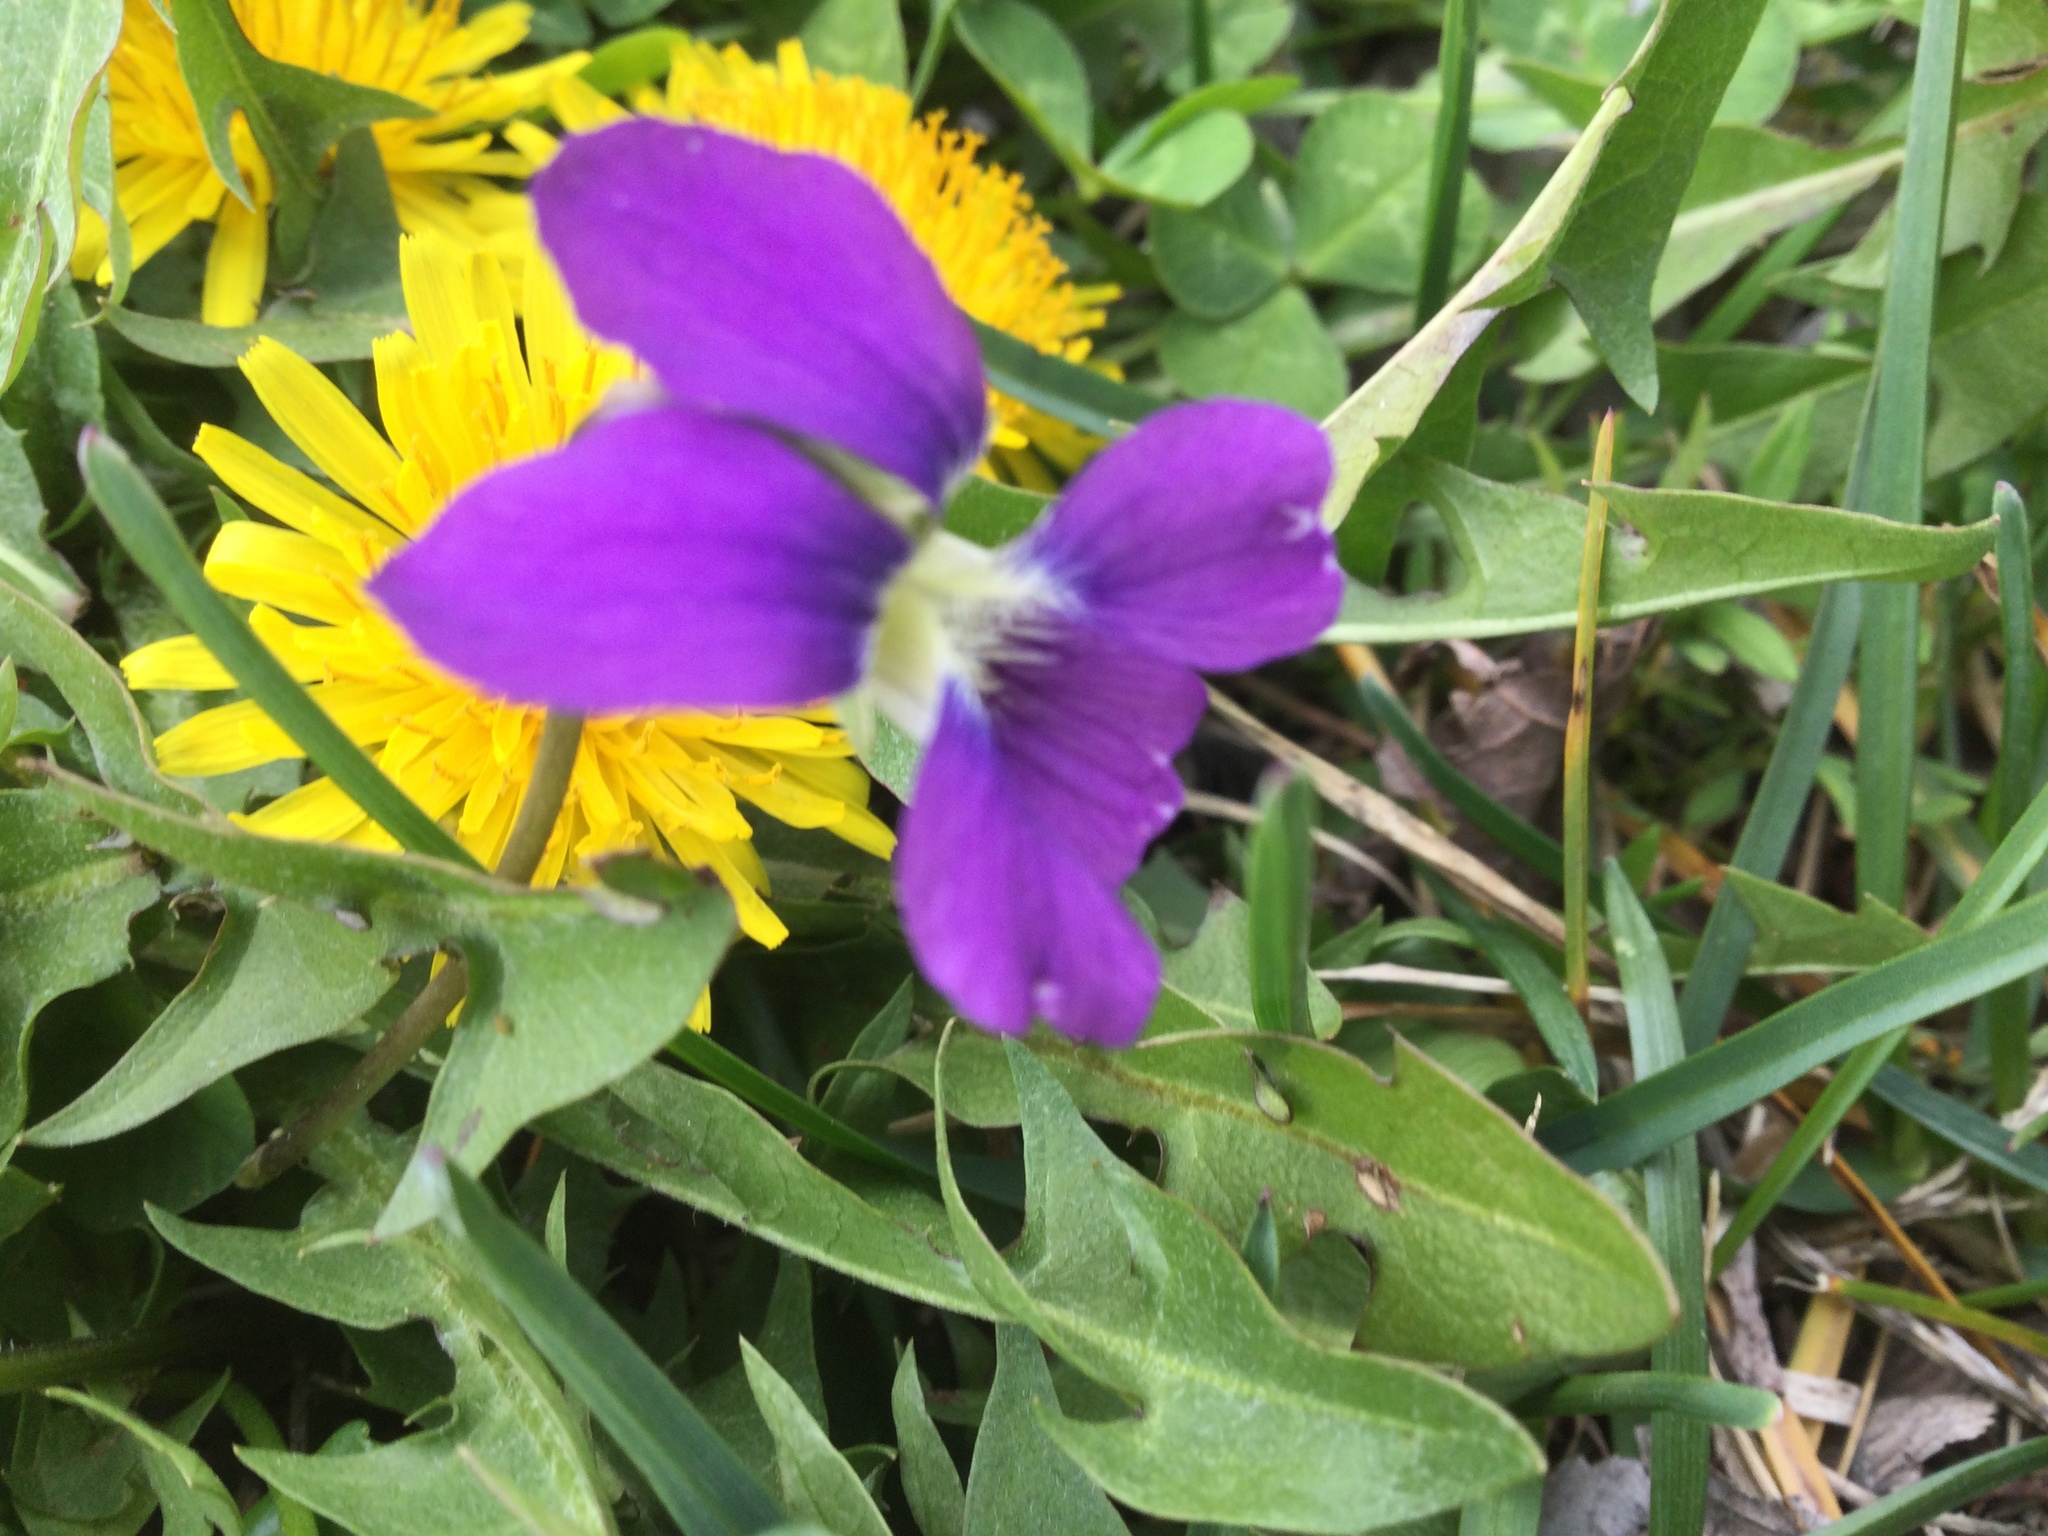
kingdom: Plantae
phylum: Tracheophyta
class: Magnoliopsida
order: Malpighiales
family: Violaceae
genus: Viola
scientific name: Viola sororia
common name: Dooryard violet
